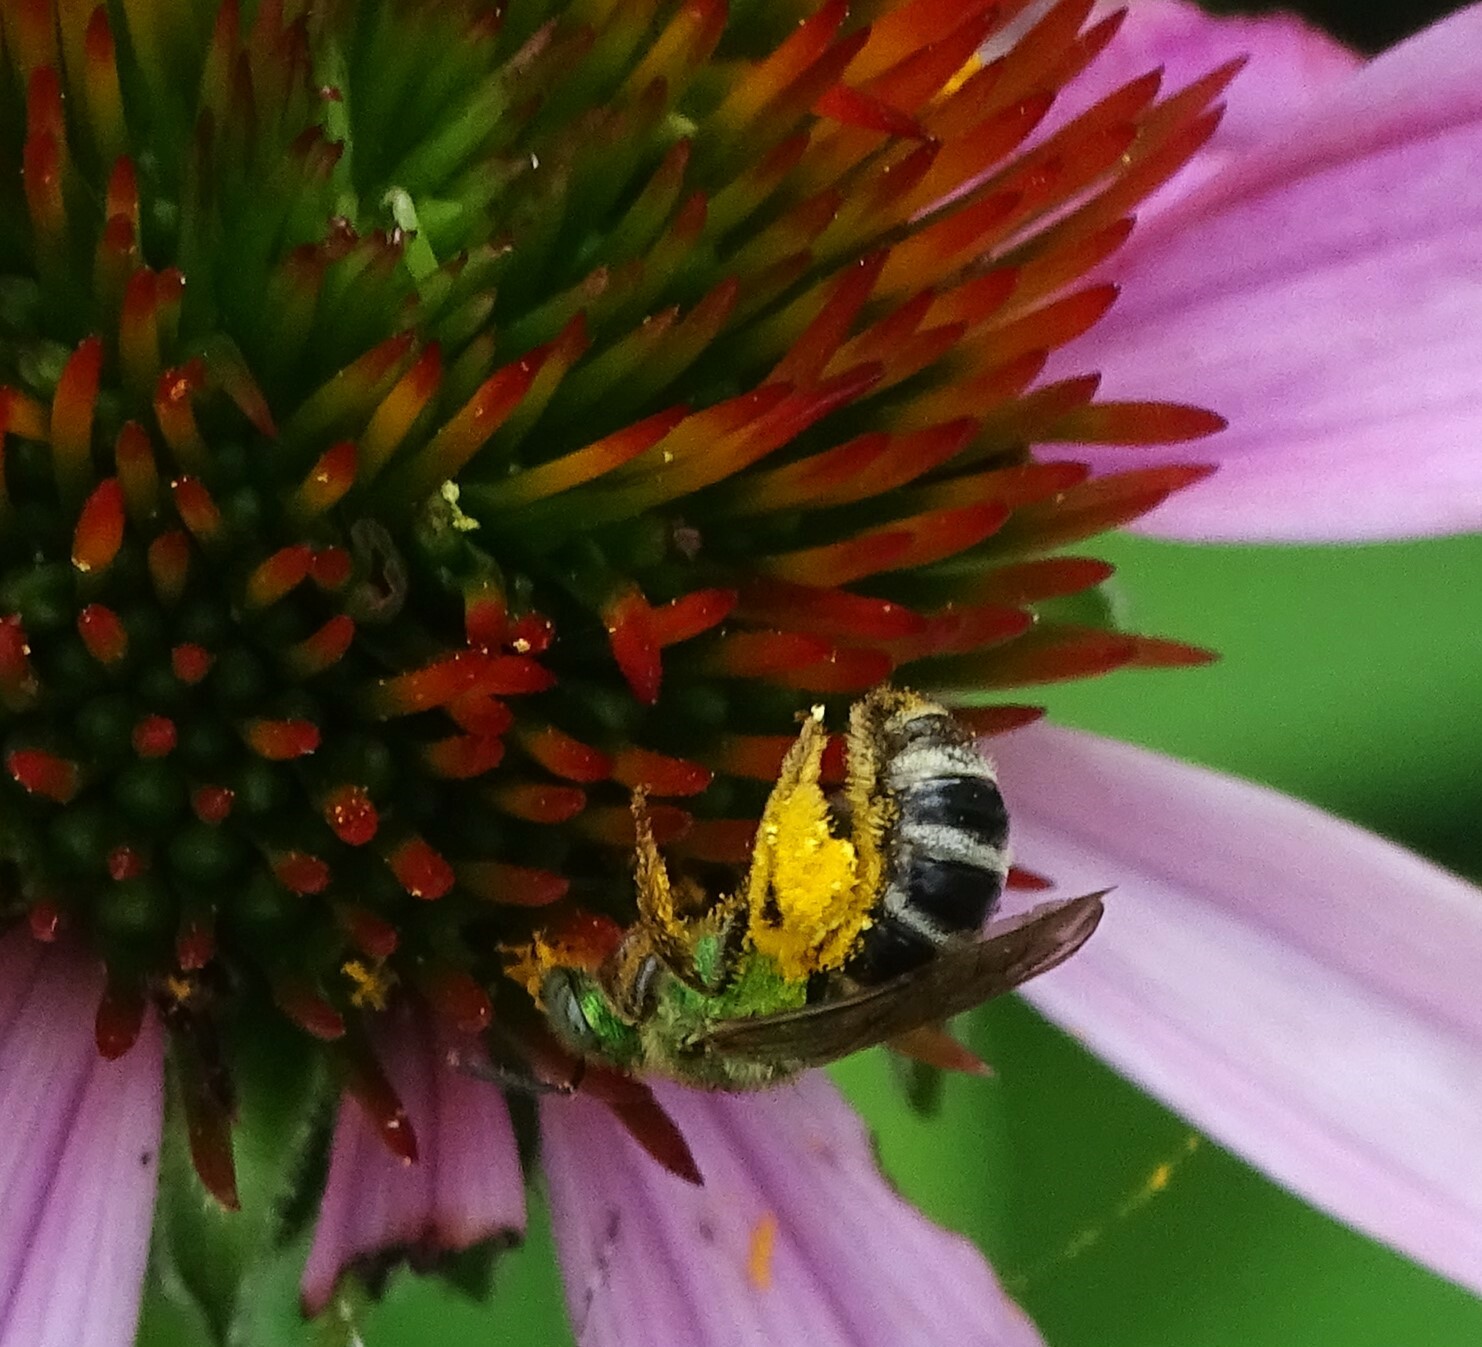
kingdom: Animalia
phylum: Arthropoda
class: Insecta
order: Hymenoptera
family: Halictidae
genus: Agapostemon
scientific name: Agapostemon virescens
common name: Bicolored striped sweat bee
